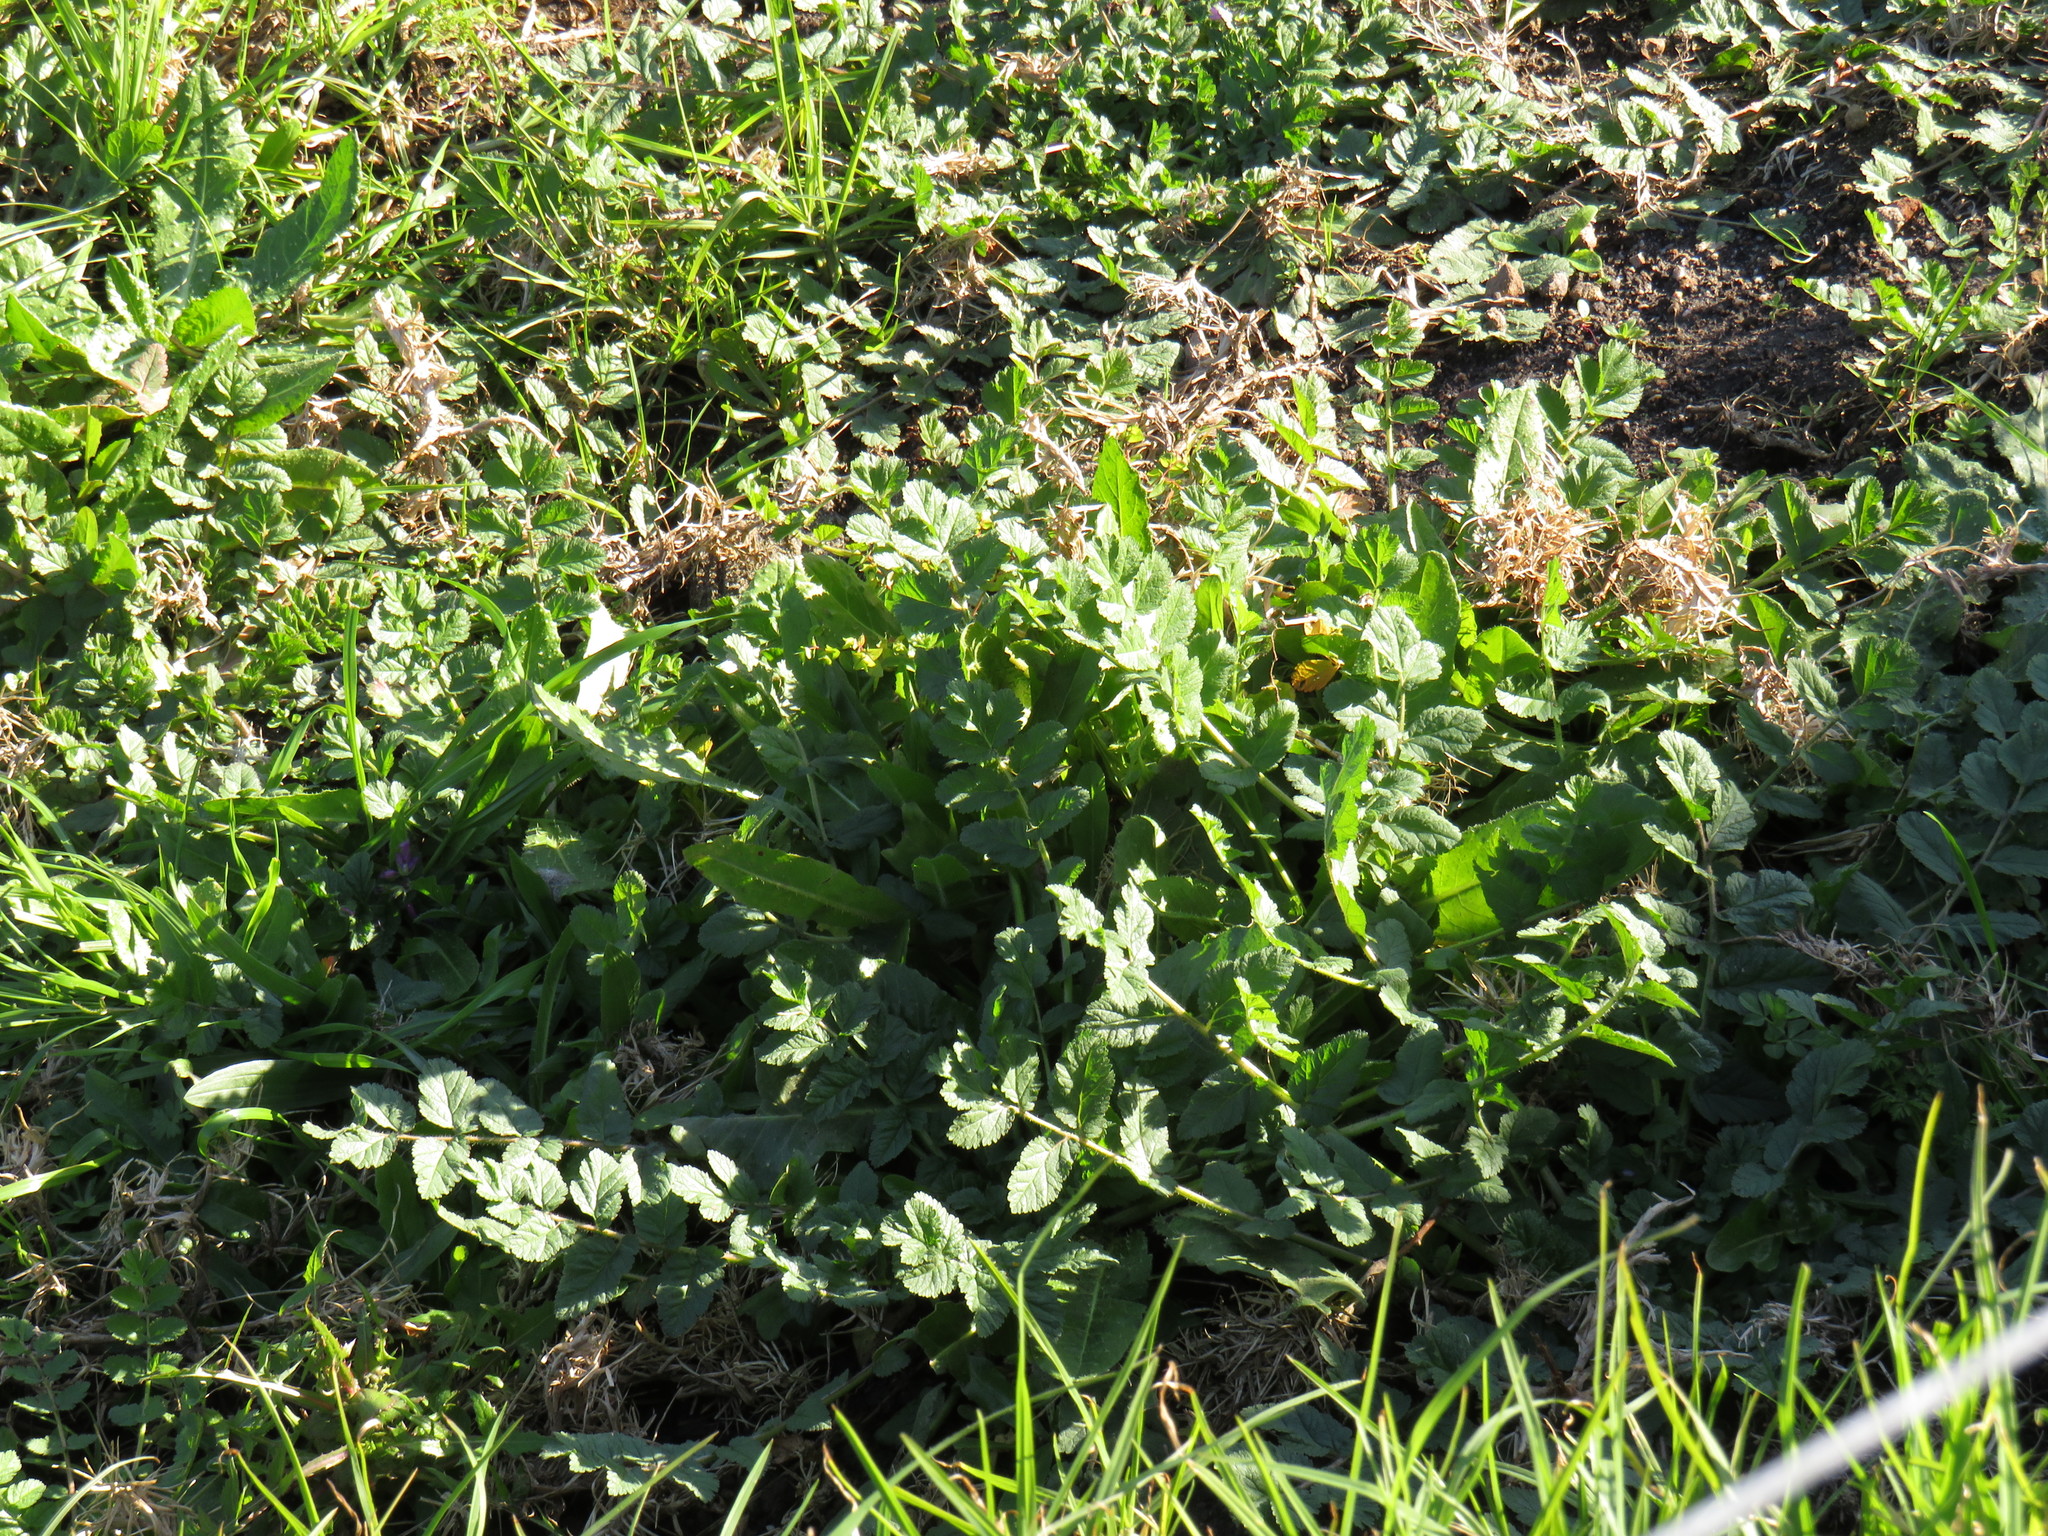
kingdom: Plantae
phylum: Tracheophyta
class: Magnoliopsida
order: Geraniales
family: Geraniaceae
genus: Erodium
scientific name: Erodium moschatum
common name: Musk stork's-bill
